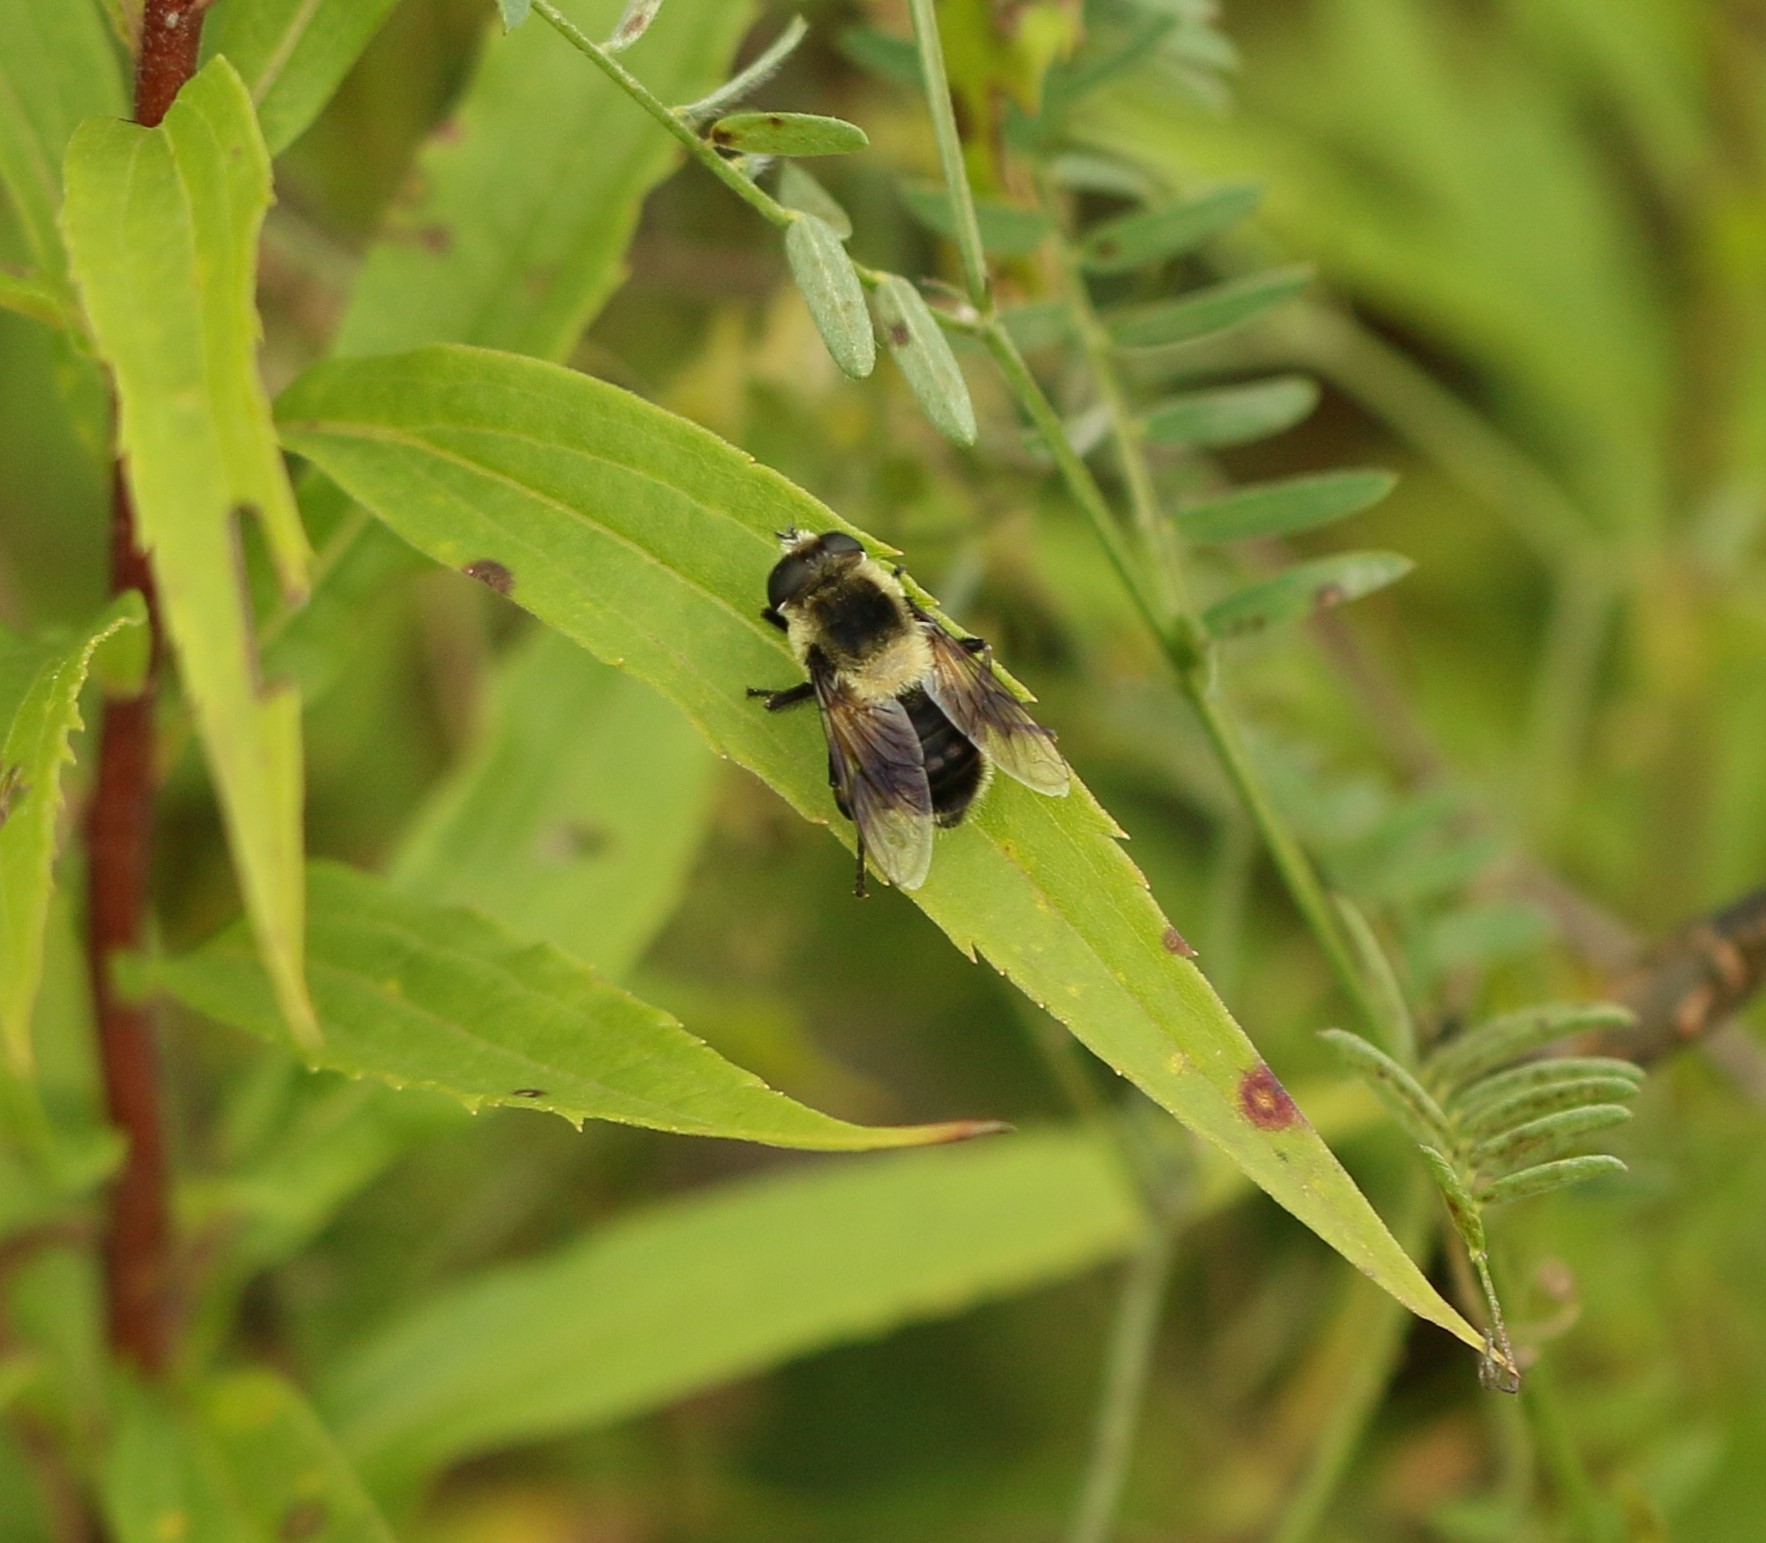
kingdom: Animalia
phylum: Arthropoda
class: Insecta
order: Diptera
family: Syrphidae
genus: Eristalis
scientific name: Eristalis anthophorina
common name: Orange-spotted drone fly
